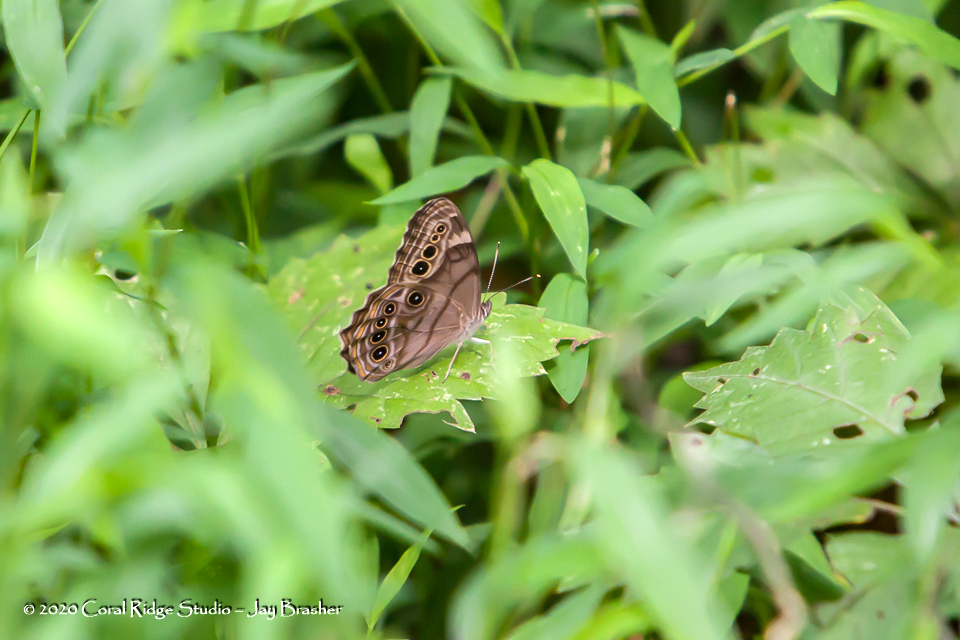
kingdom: Animalia
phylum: Arthropoda
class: Insecta
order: Lepidoptera
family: Nymphalidae
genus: Lethe
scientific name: Lethe anthedon
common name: Northern pearly-eye
